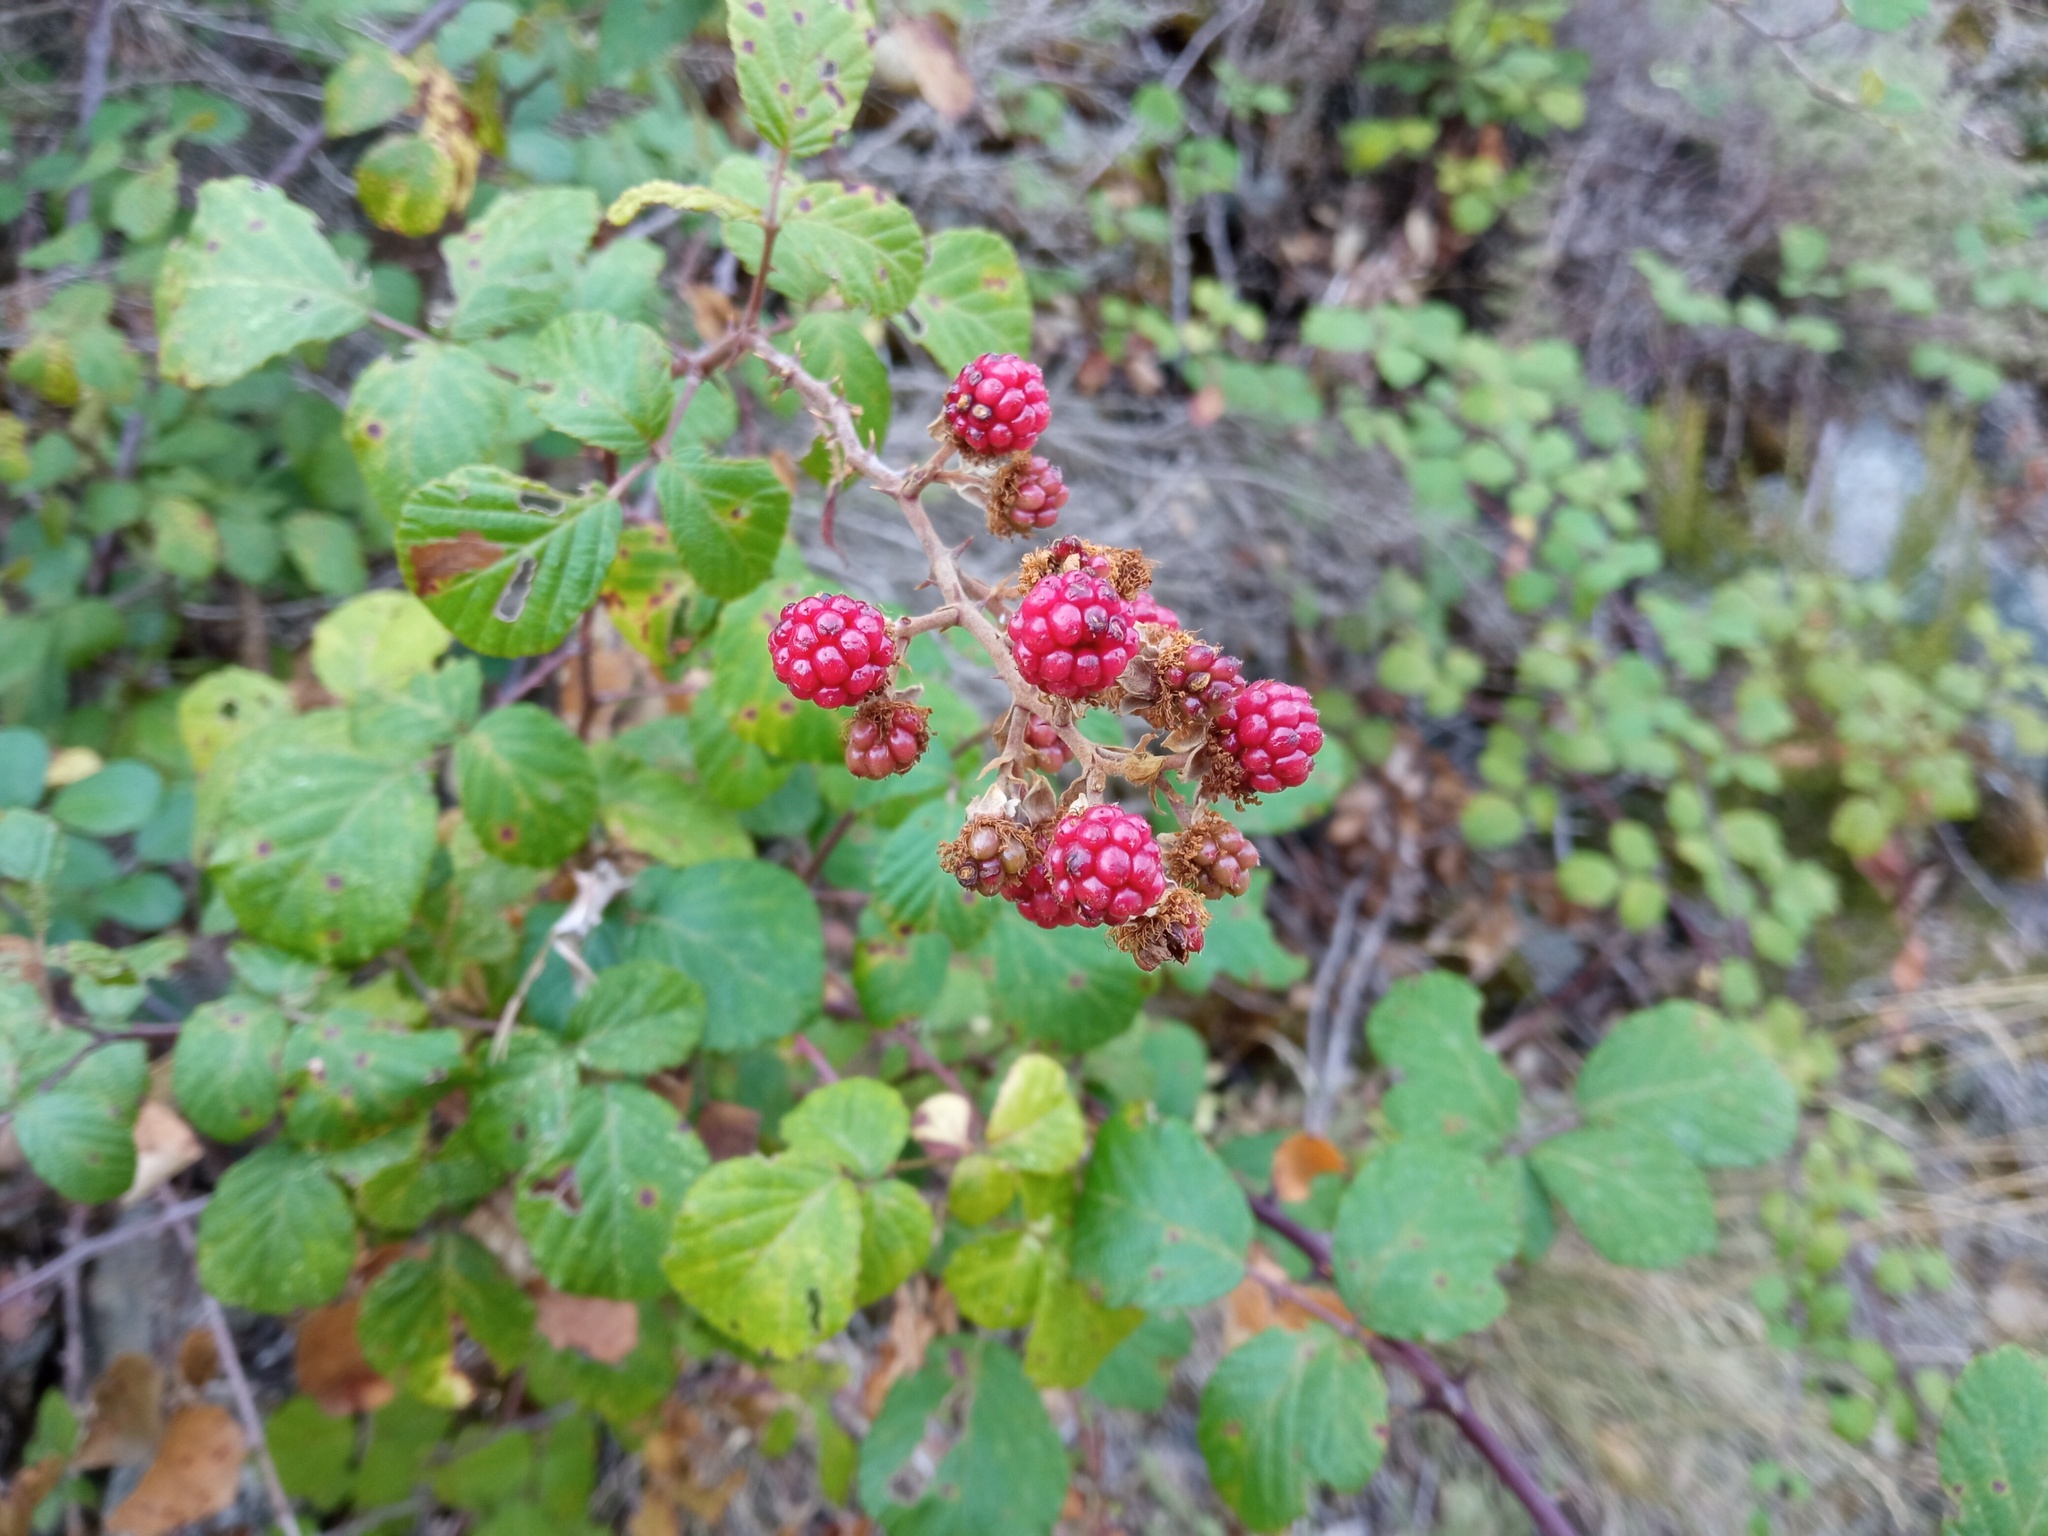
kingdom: Plantae
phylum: Tracheophyta
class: Magnoliopsida
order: Rosales
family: Rosaceae
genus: Rubus
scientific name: Rubus ulmifolius
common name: Elmleaf blackberry
